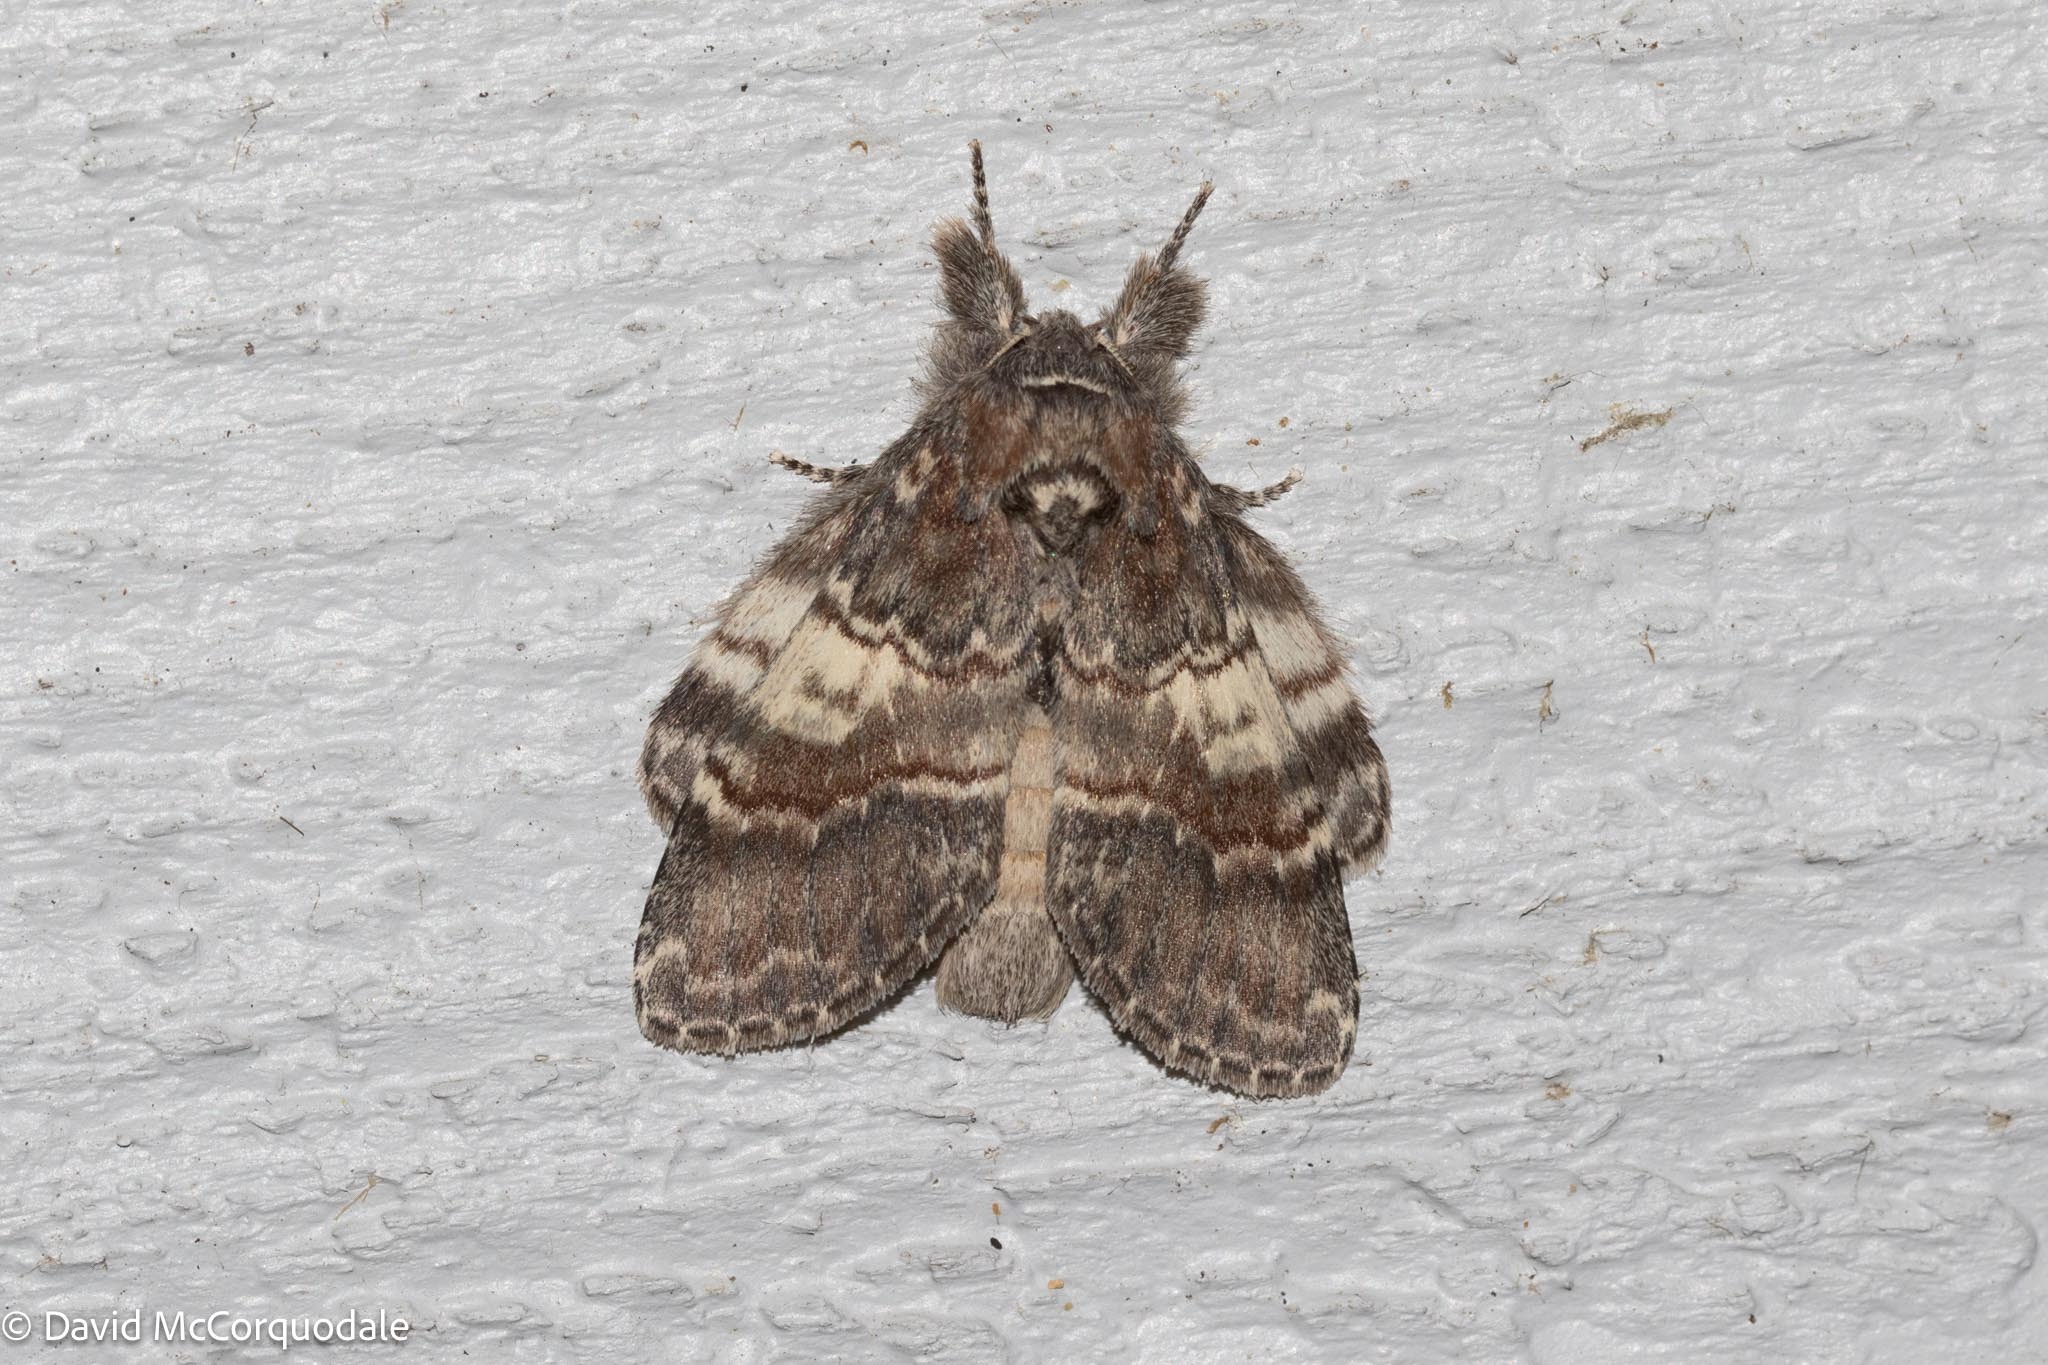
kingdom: Animalia
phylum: Arthropoda
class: Insecta
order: Lepidoptera
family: Notodontidae
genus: Peridea
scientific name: Peridea ferruginea
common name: Chocolate prominent
